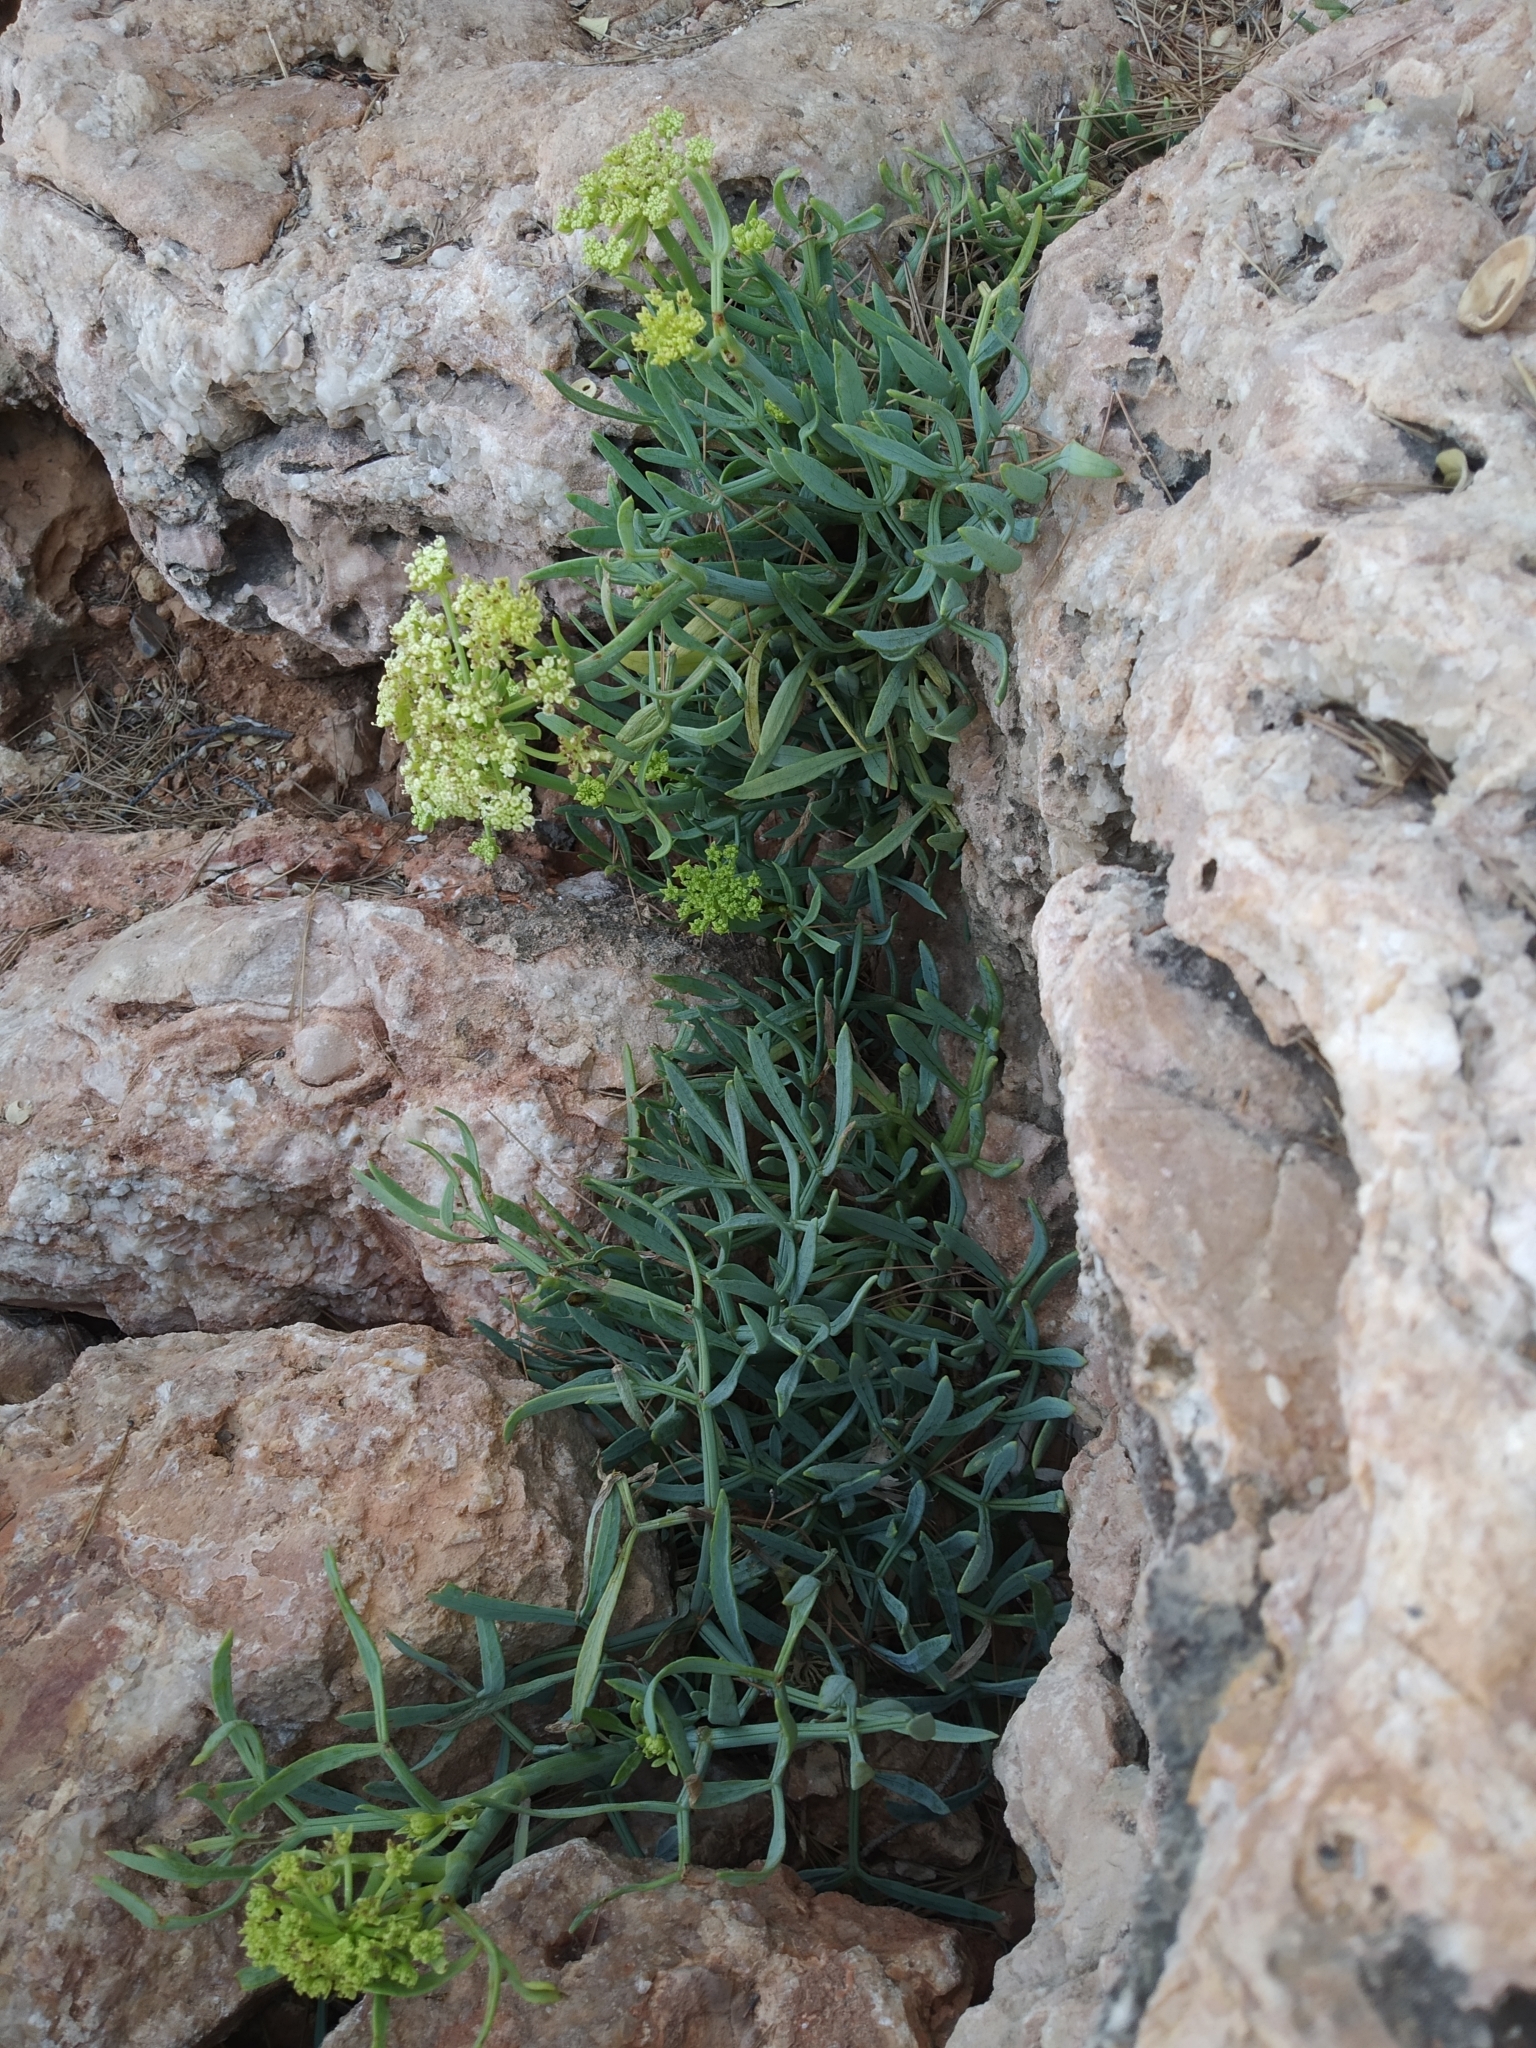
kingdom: Plantae
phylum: Tracheophyta
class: Magnoliopsida
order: Apiales
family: Apiaceae
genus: Crithmum
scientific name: Crithmum maritimum
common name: Rock samphire
